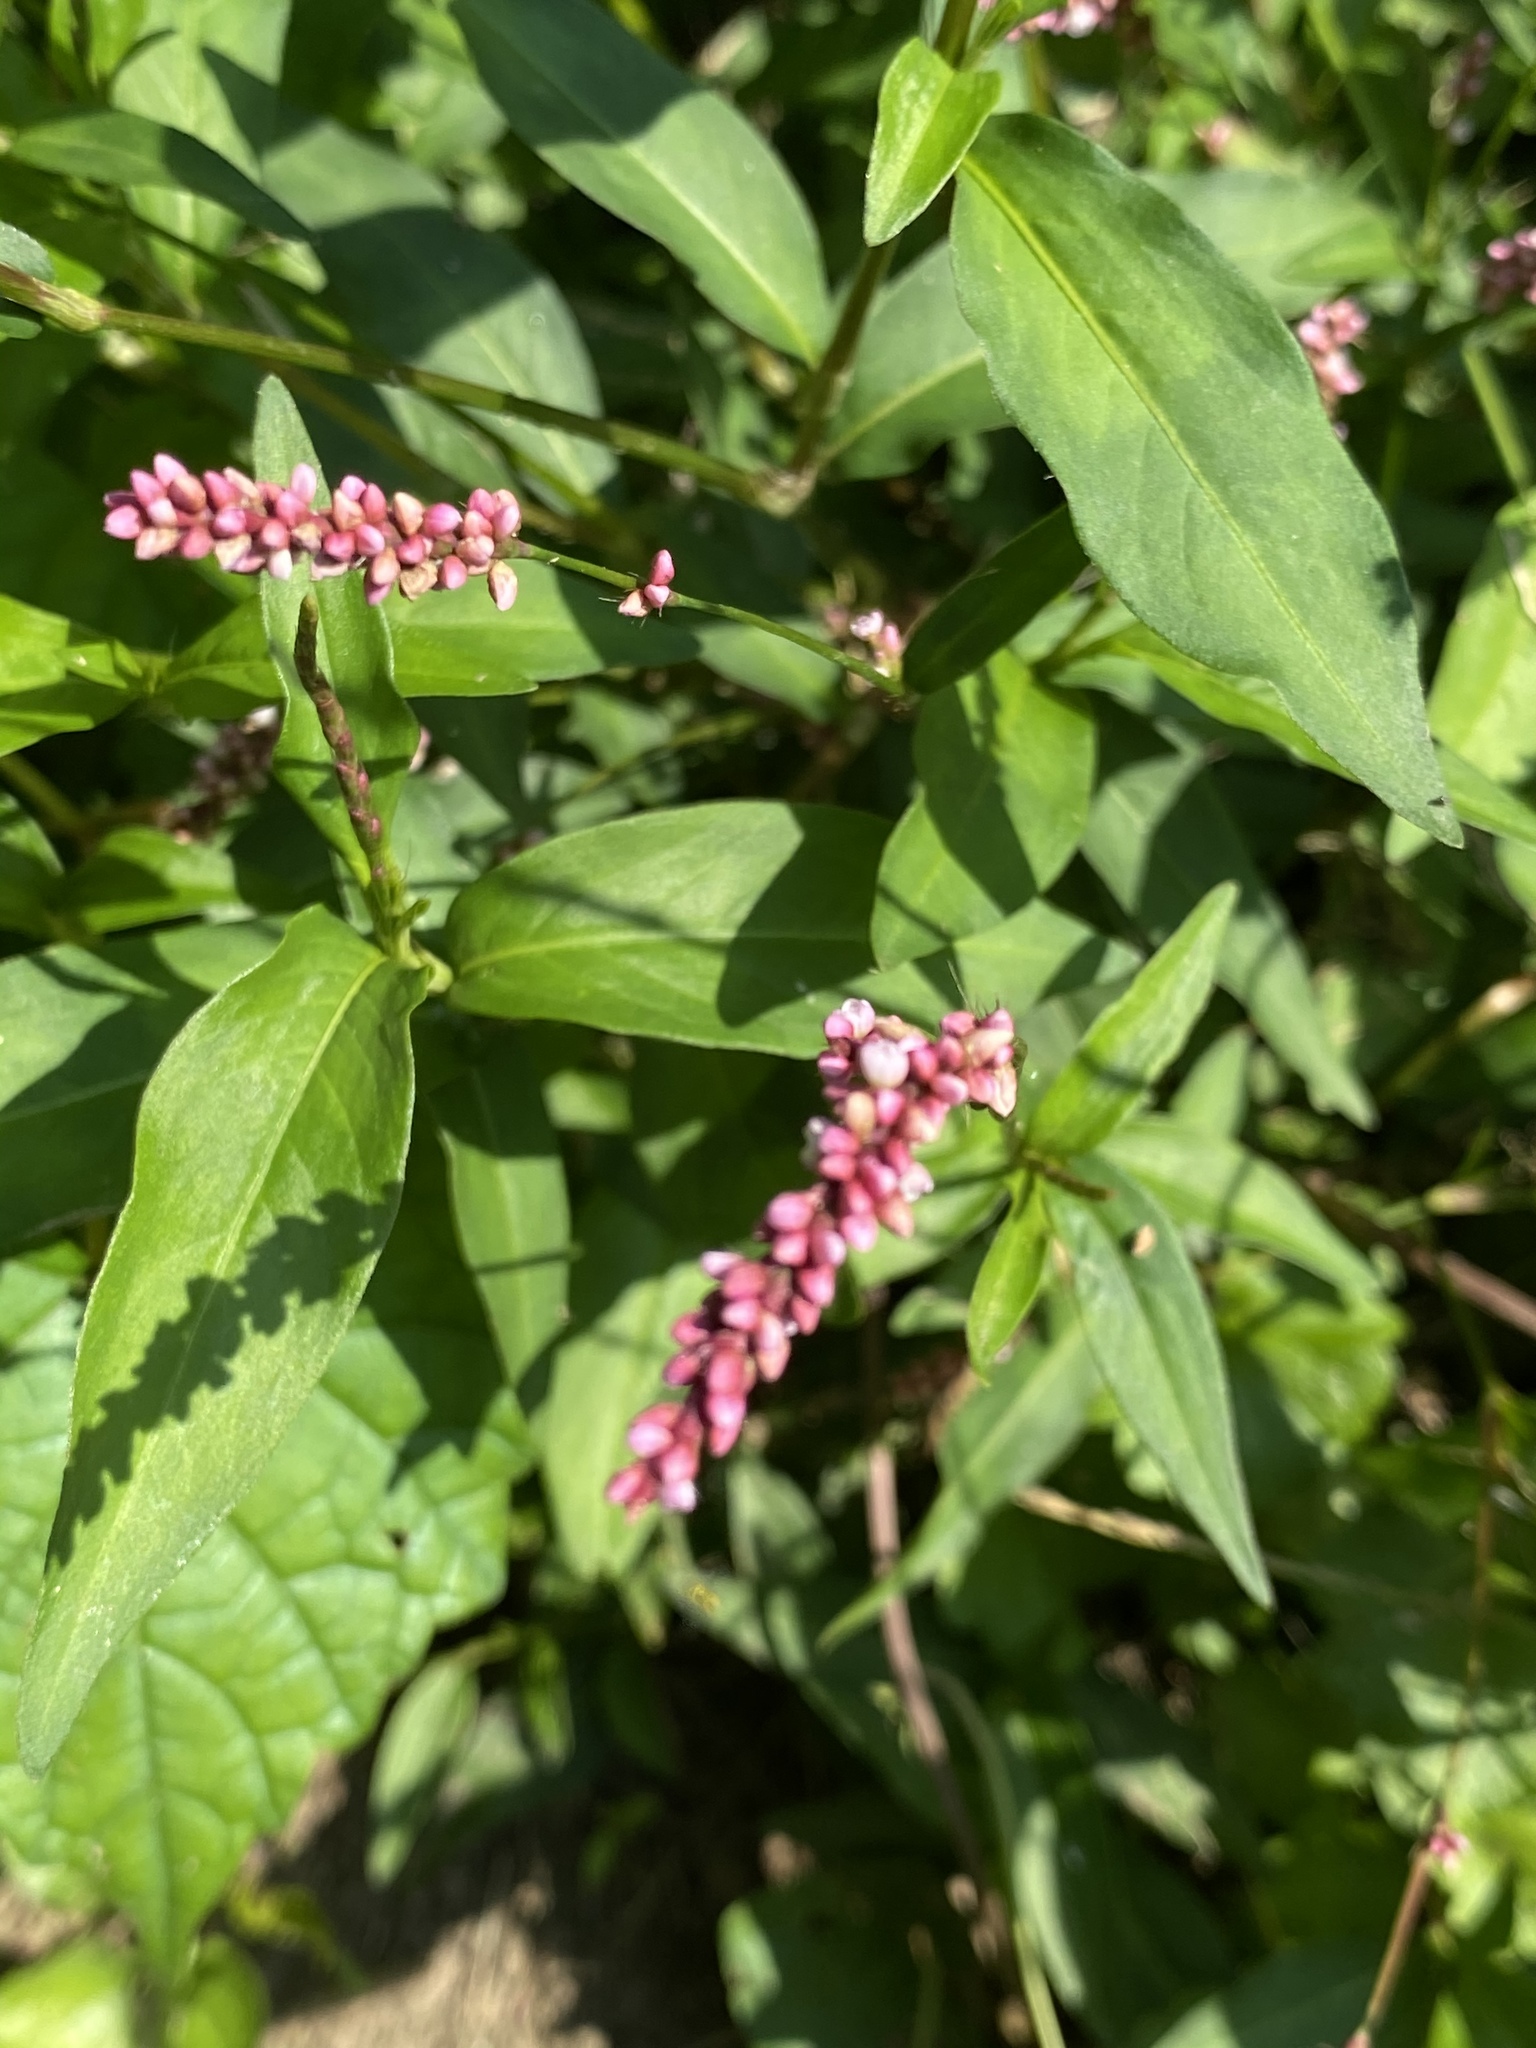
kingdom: Plantae
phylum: Tracheophyta
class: Magnoliopsida
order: Caryophyllales
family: Polygonaceae
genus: Persicaria
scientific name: Persicaria longiseta
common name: Bristly lady's-thumb
